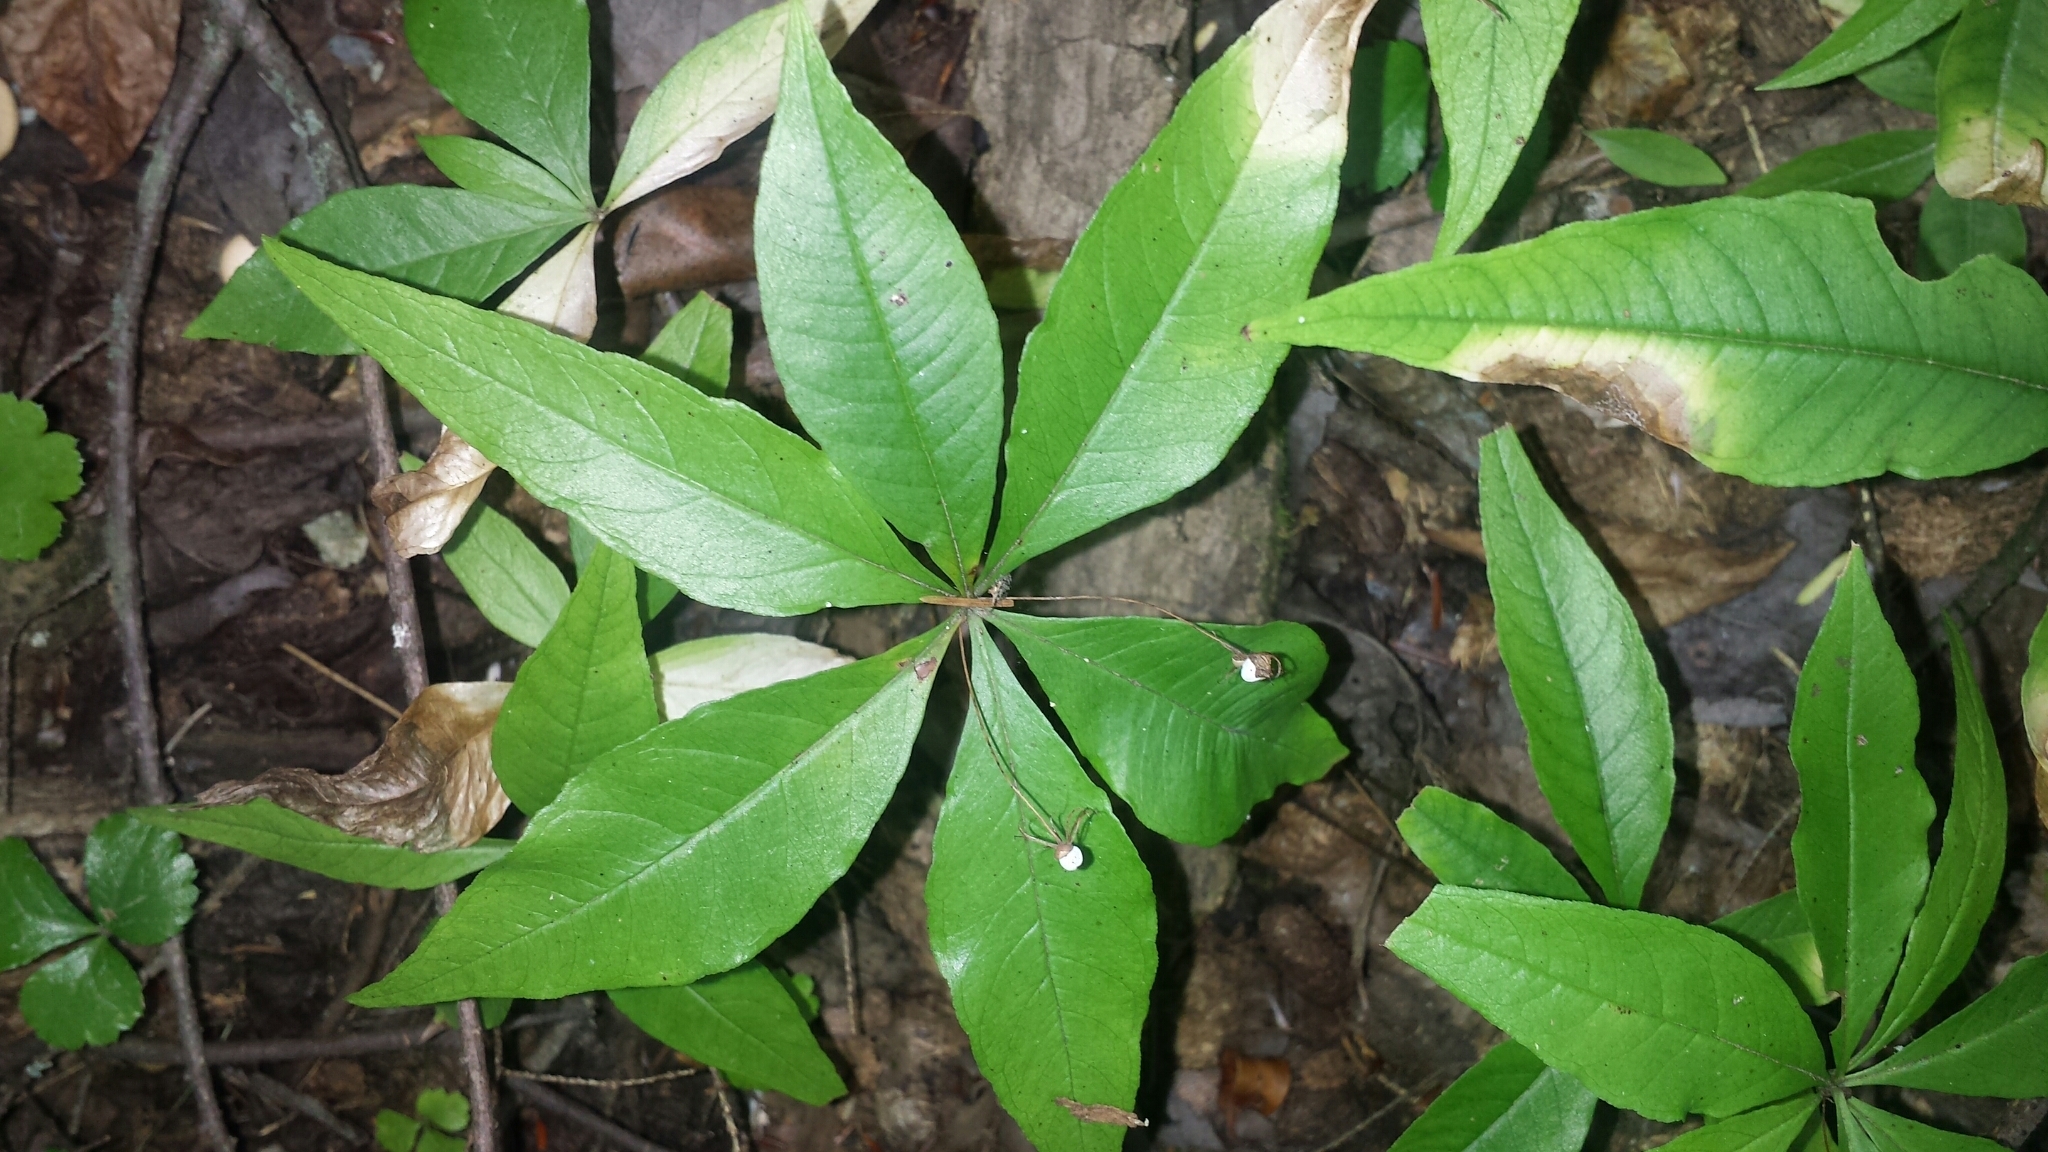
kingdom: Plantae
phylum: Tracheophyta
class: Magnoliopsida
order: Ericales
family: Primulaceae
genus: Lysimachia
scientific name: Lysimachia borealis
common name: American starflower
